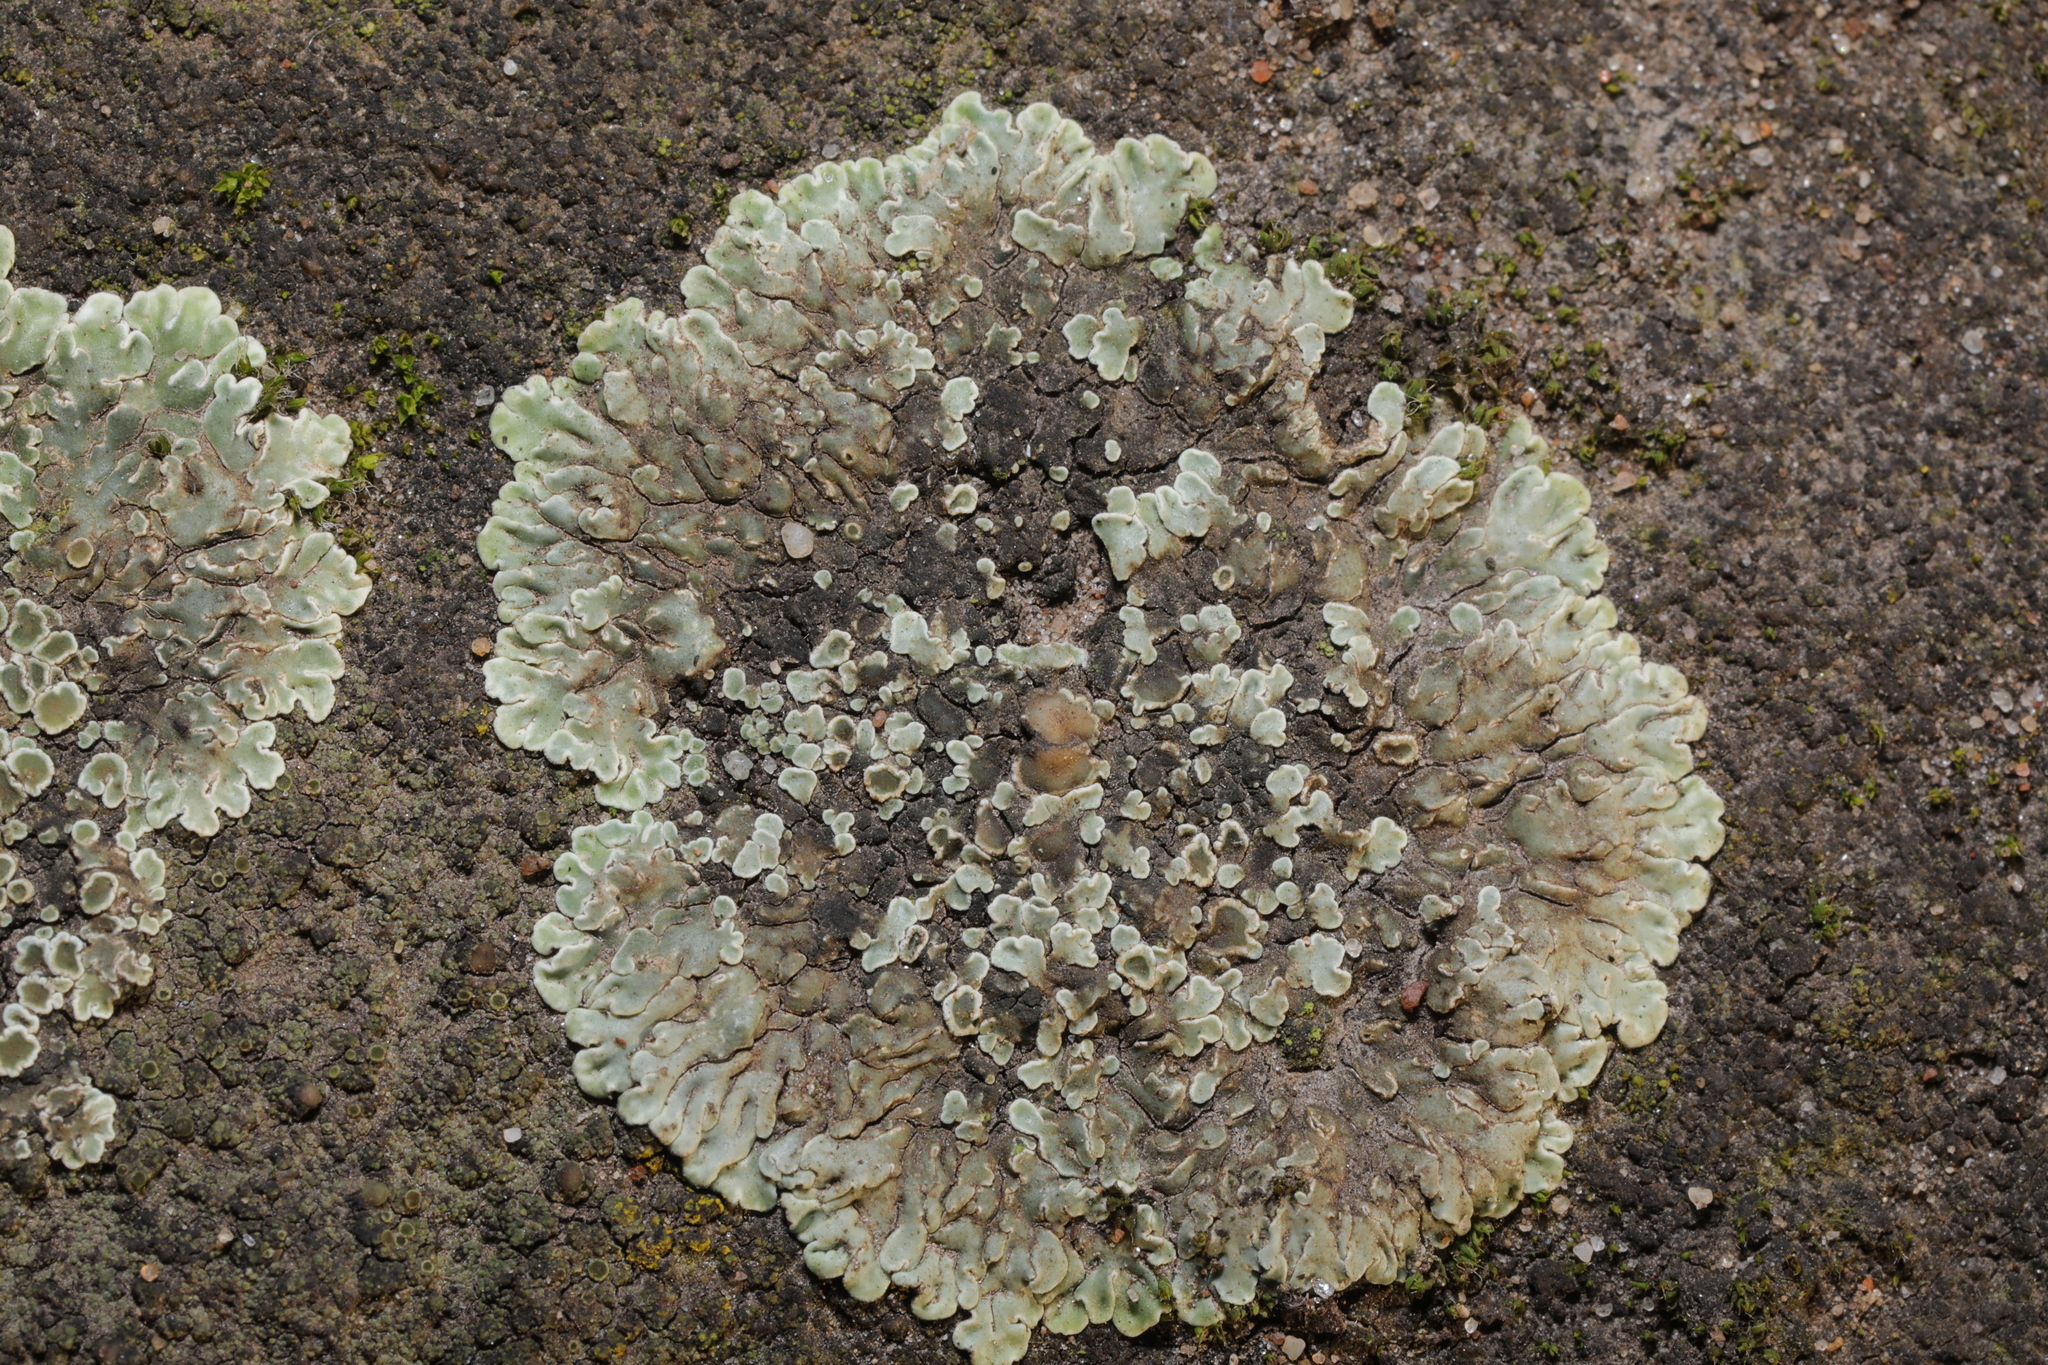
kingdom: Fungi
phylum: Ascomycota
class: Lecanoromycetes
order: Lecanorales
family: Lecanoraceae
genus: Protoparmeliopsis
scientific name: Protoparmeliopsis muralis
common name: Stonewall rim lichen
